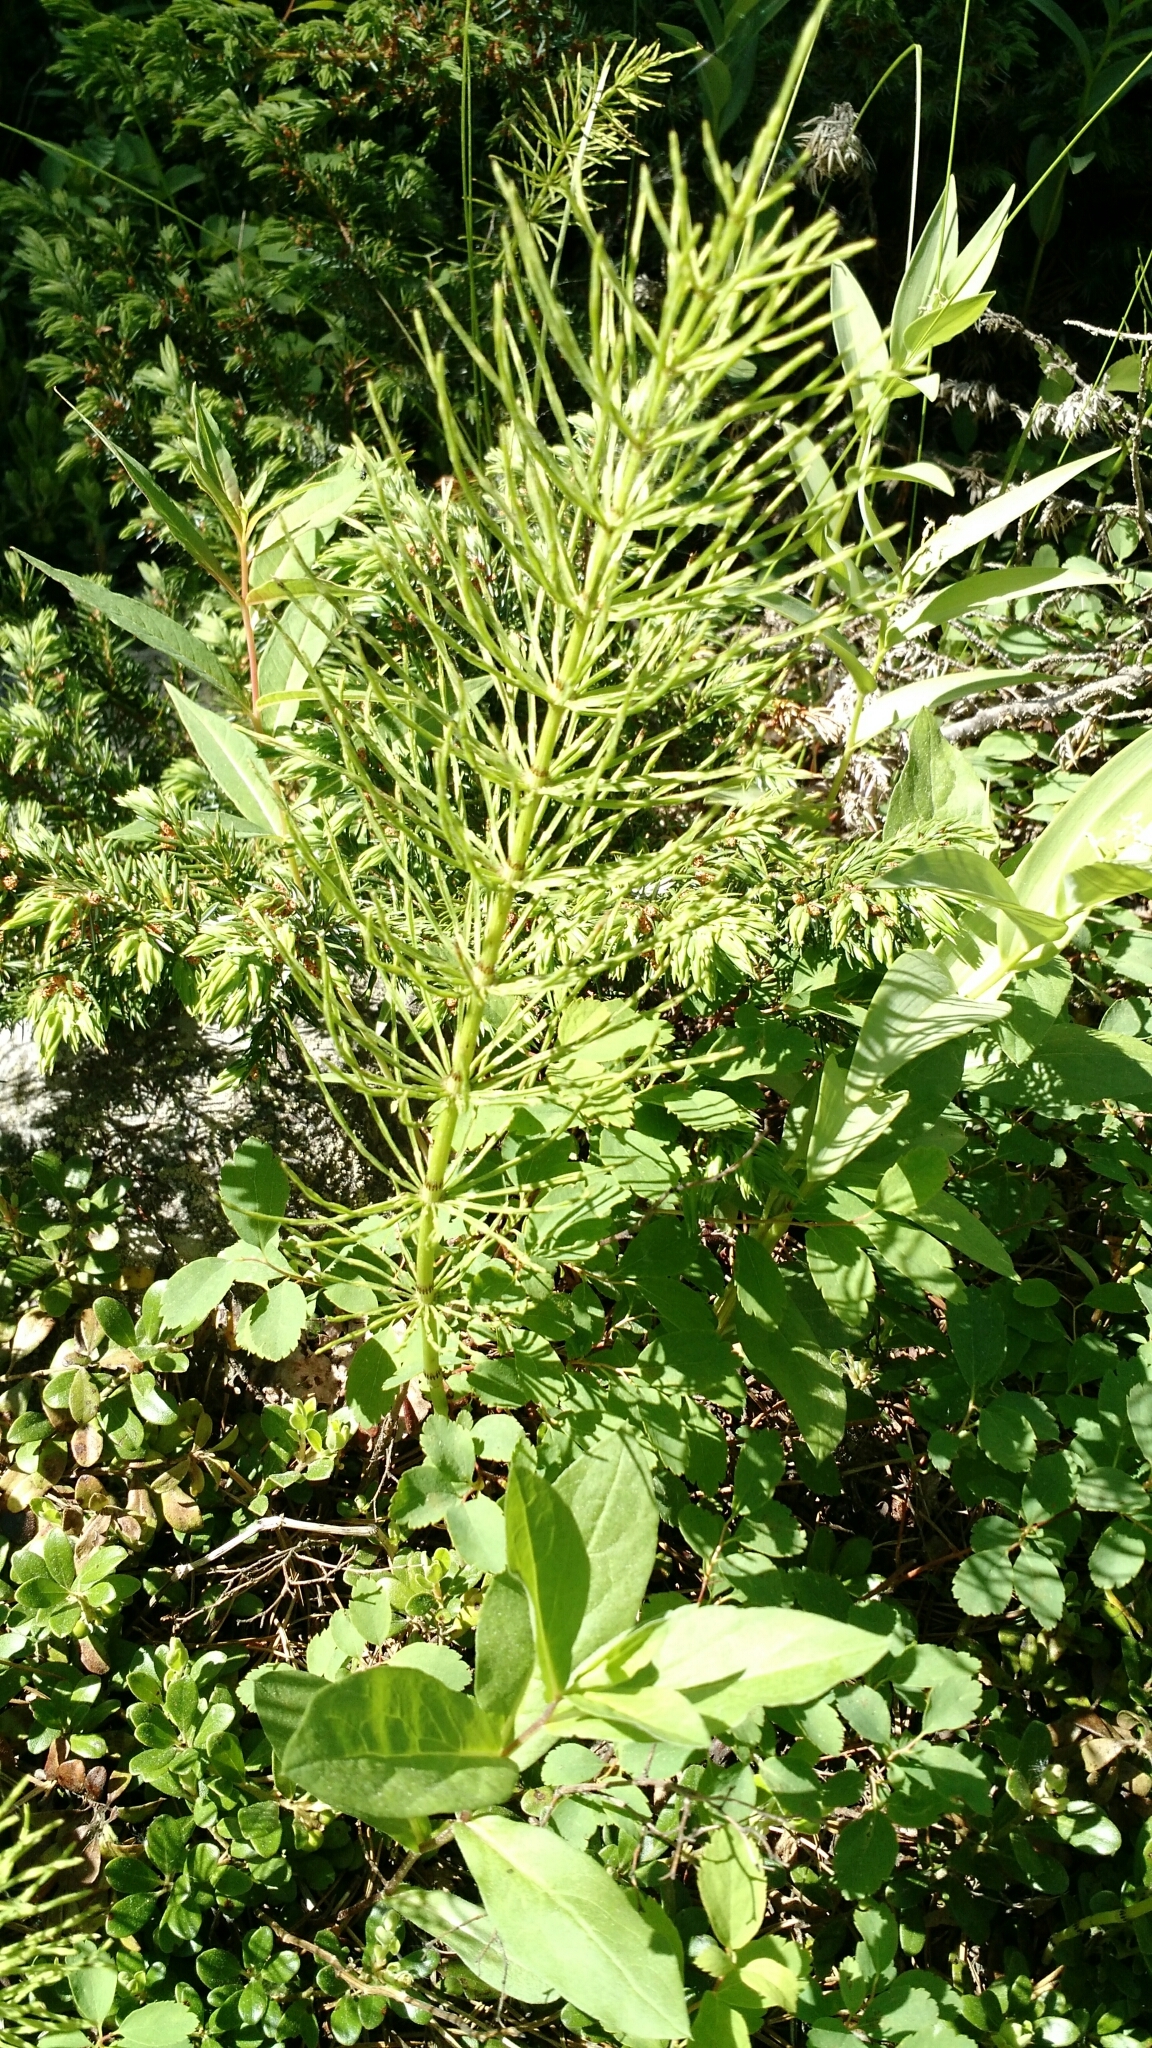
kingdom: Plantae
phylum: Tracheophyta
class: Polypodiopsida
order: Equisetales
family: Equisetaceae
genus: Equisetum
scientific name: Equisetum arvense
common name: Field horsetail
